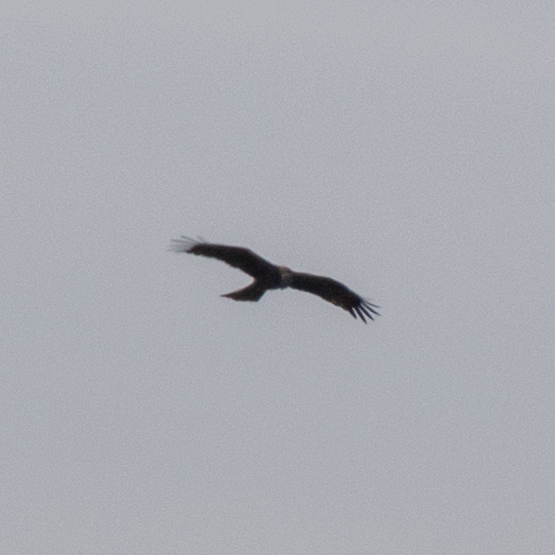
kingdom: Animalia
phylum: Chordata
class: Aves
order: Accipitriformes
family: Accipitridae
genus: Milvus
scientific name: Milvus migrans
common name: Black kite
